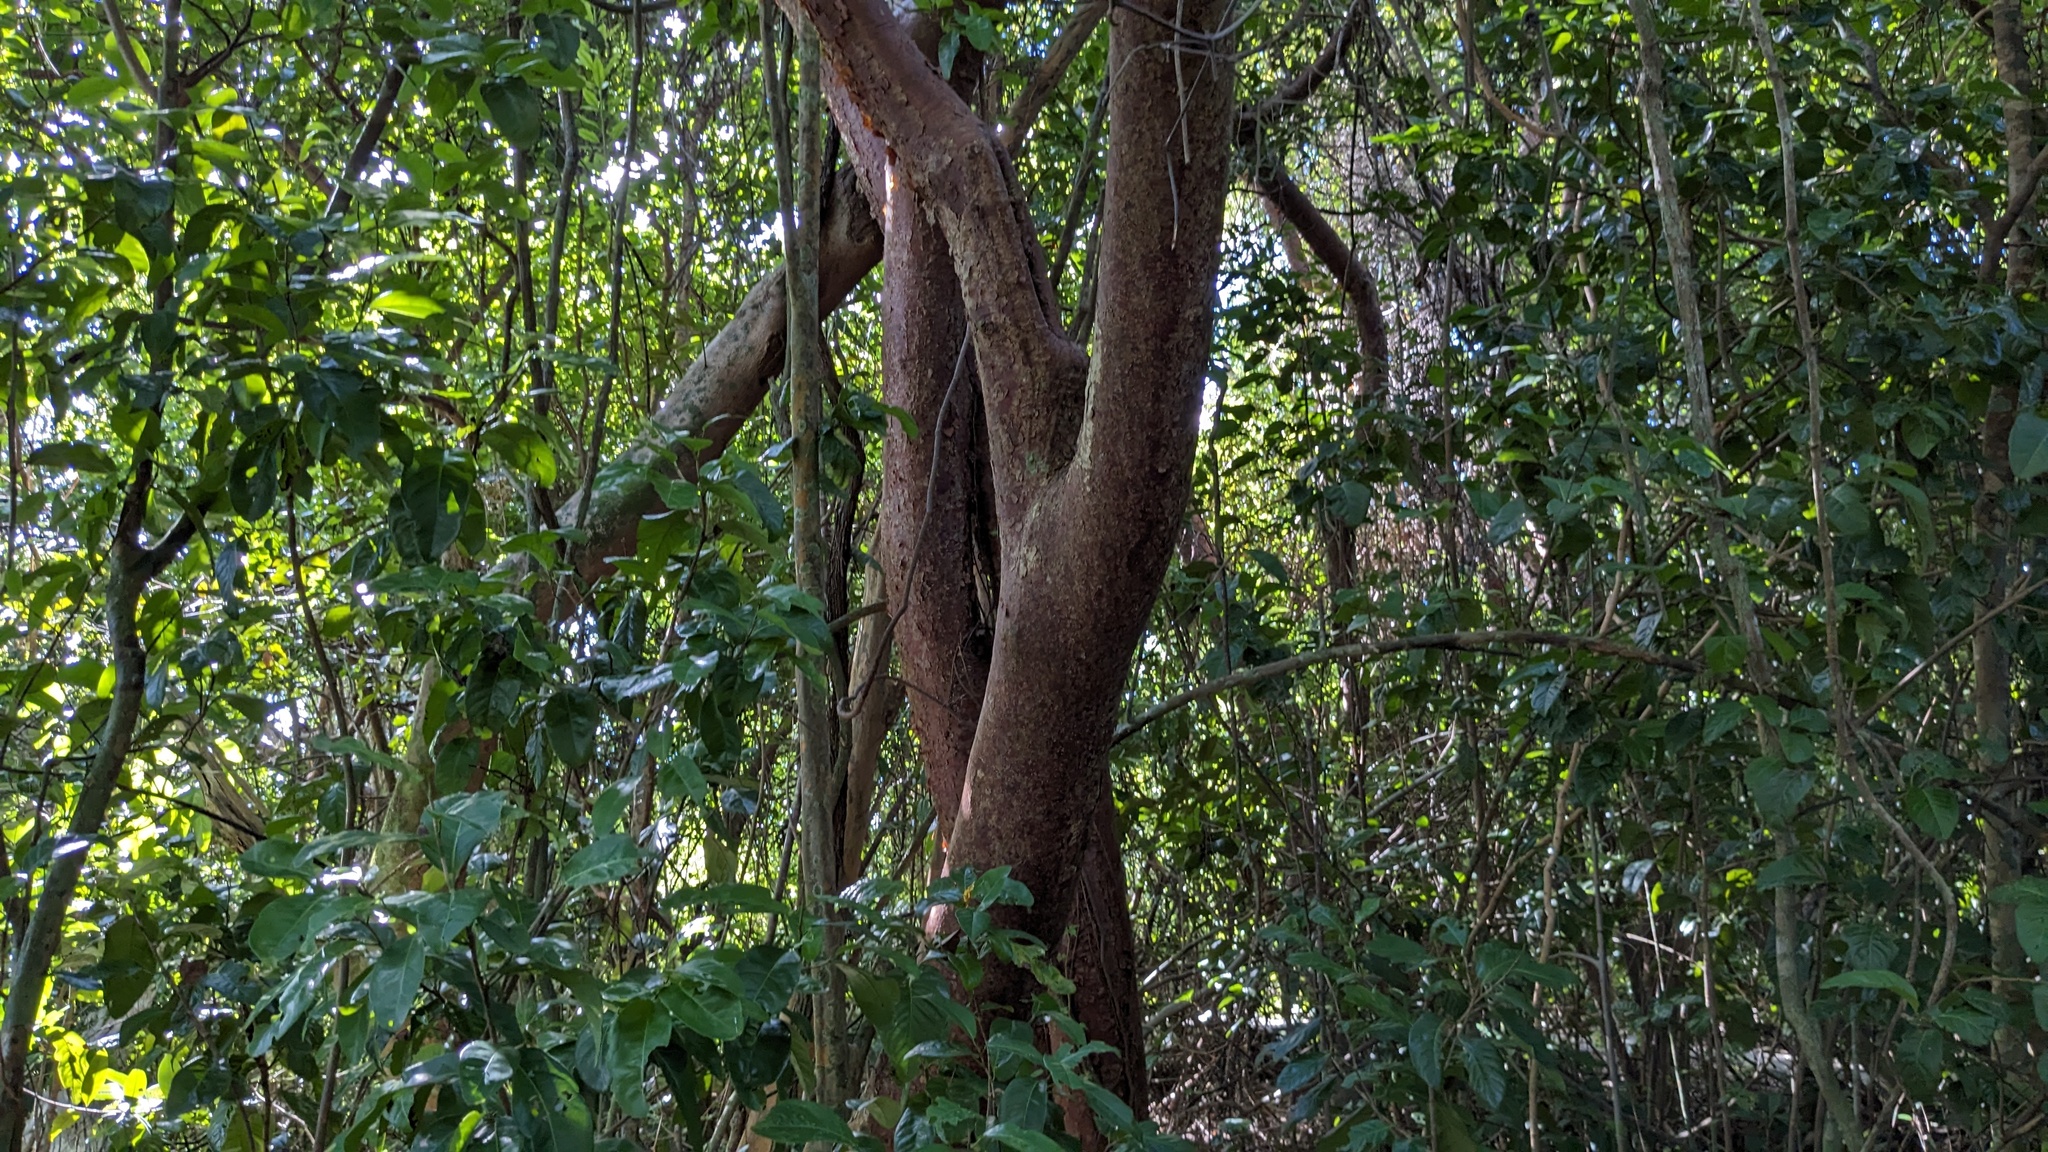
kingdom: Plantae
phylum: Tracheophyta
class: Magnoliopsida
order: Sapindales
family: Burseraceae
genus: Bursera
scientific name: Bursera simaruba
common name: Turpentine tree
